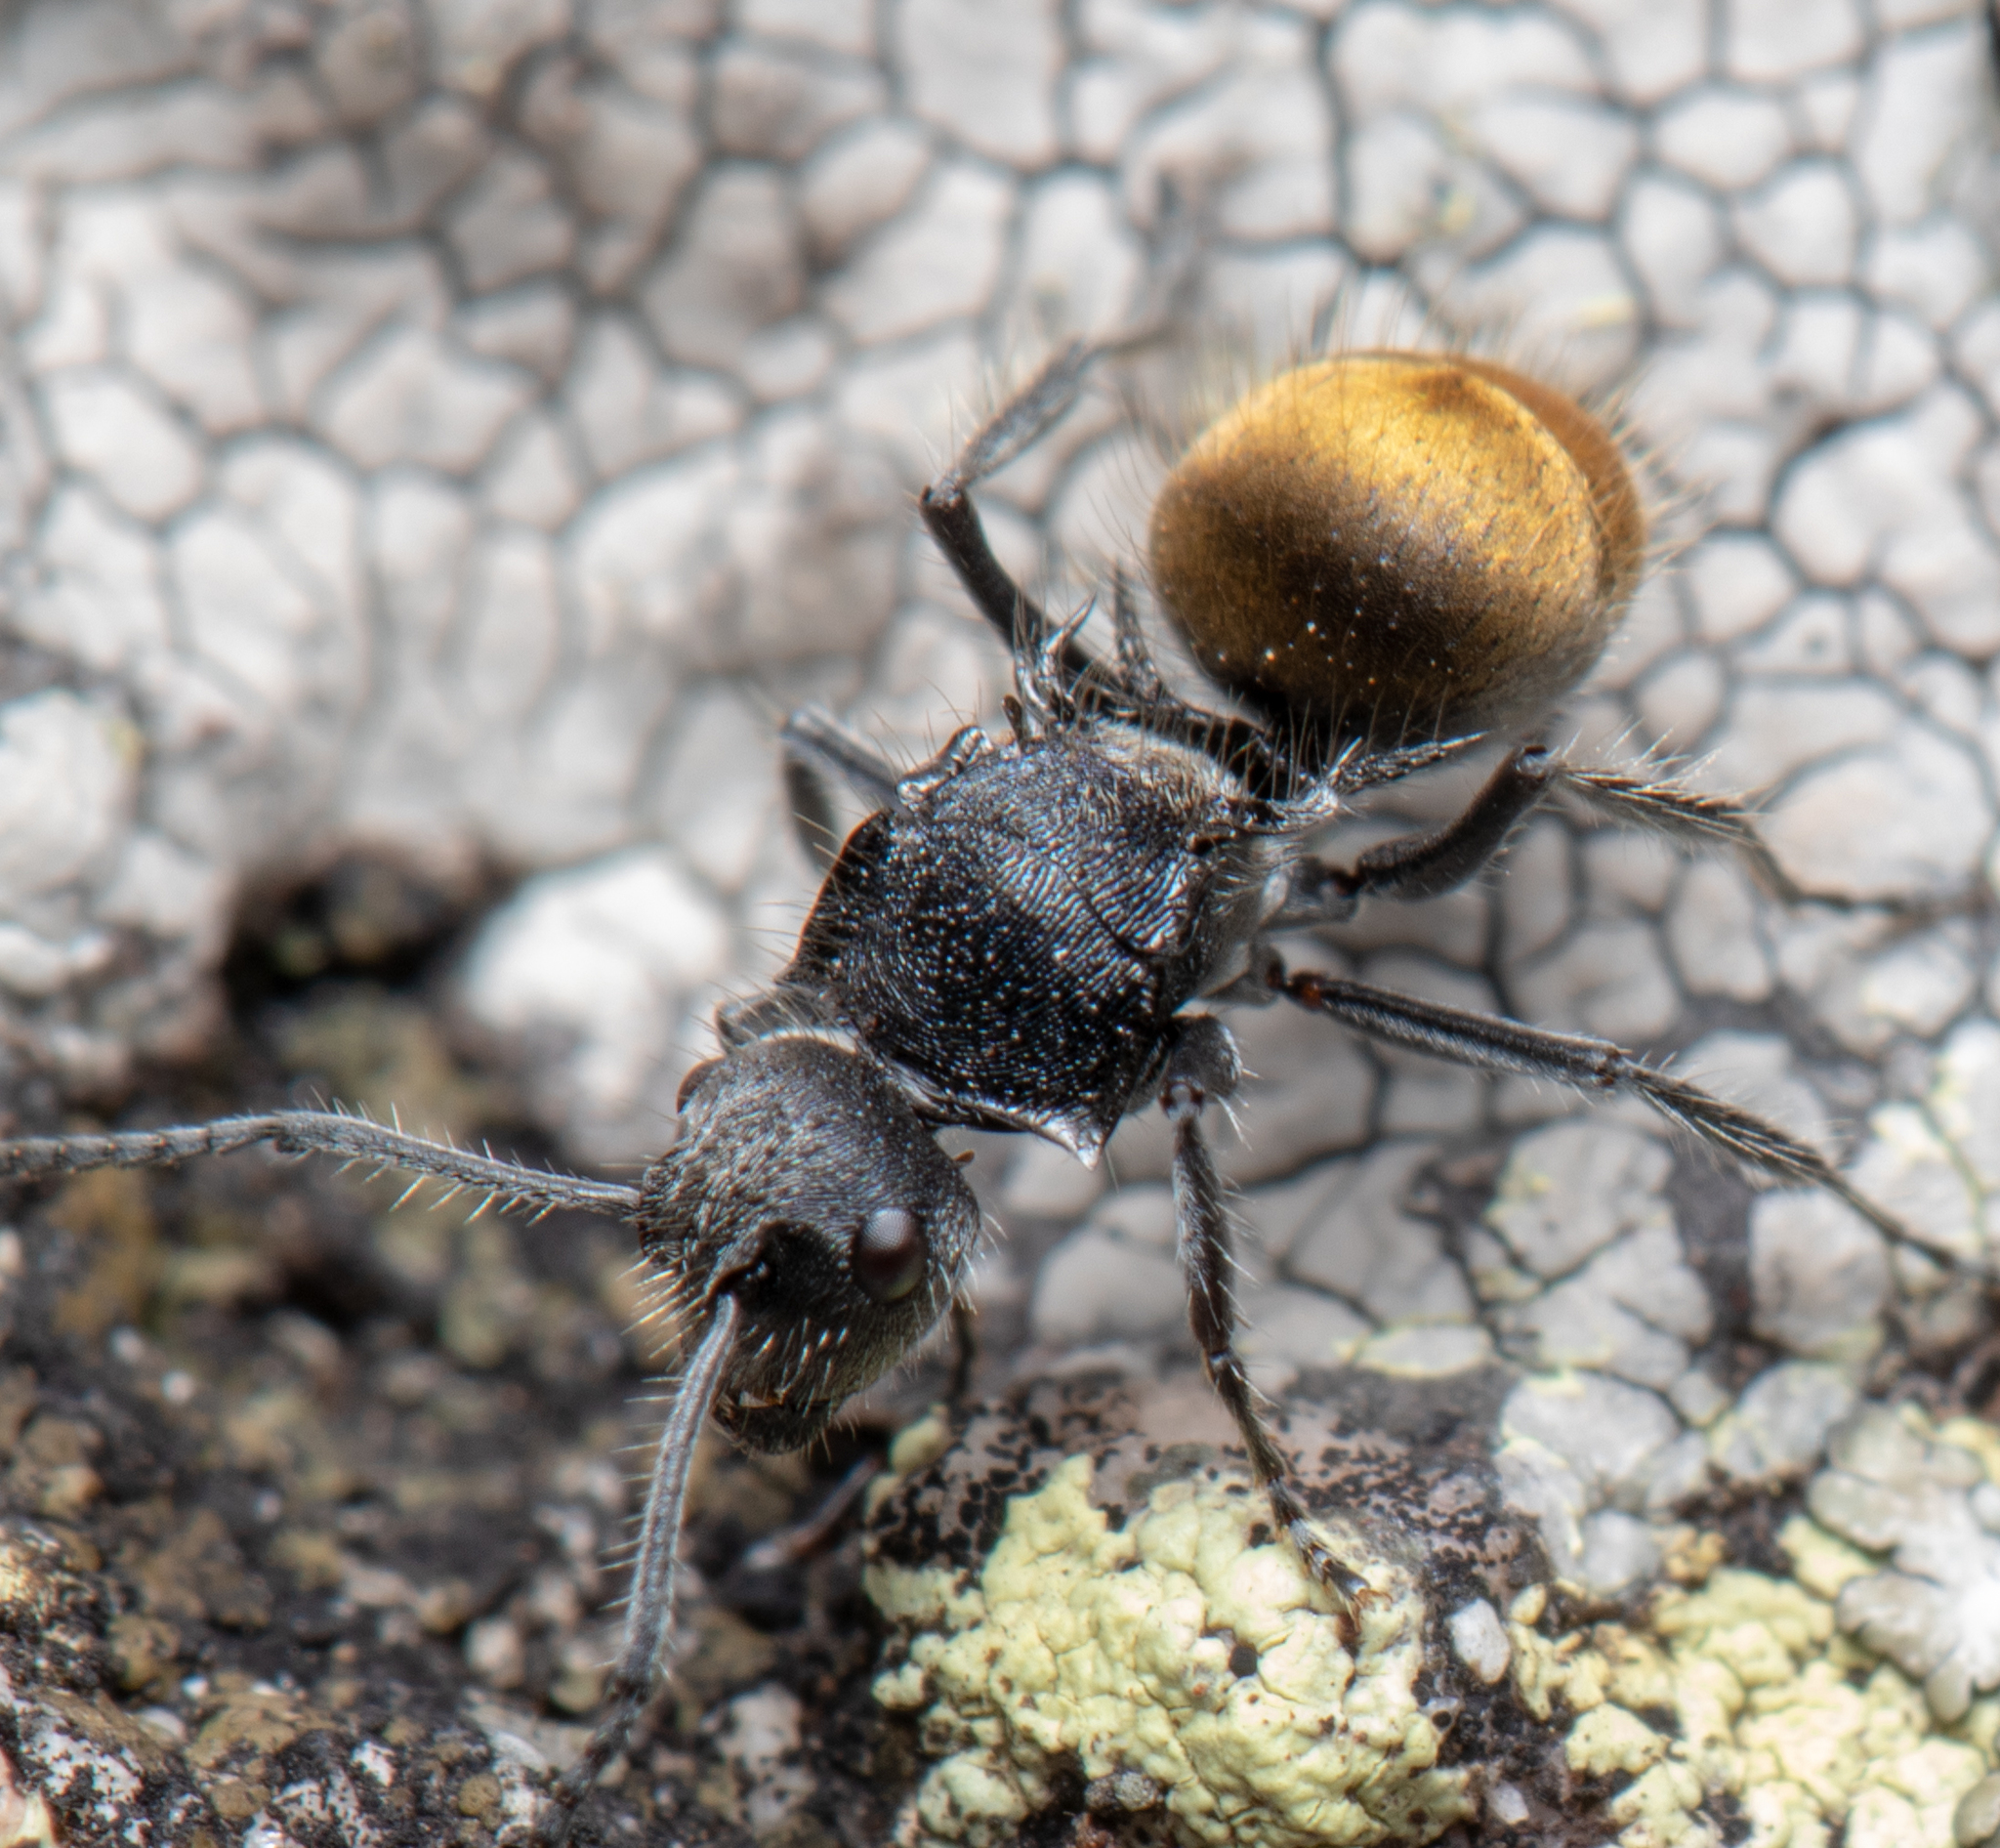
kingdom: Animalia
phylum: Arthropoda
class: Insecta
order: Hymenoptera
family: Formicidae
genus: Polyrhachis
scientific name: Polyrhachis schoopae
